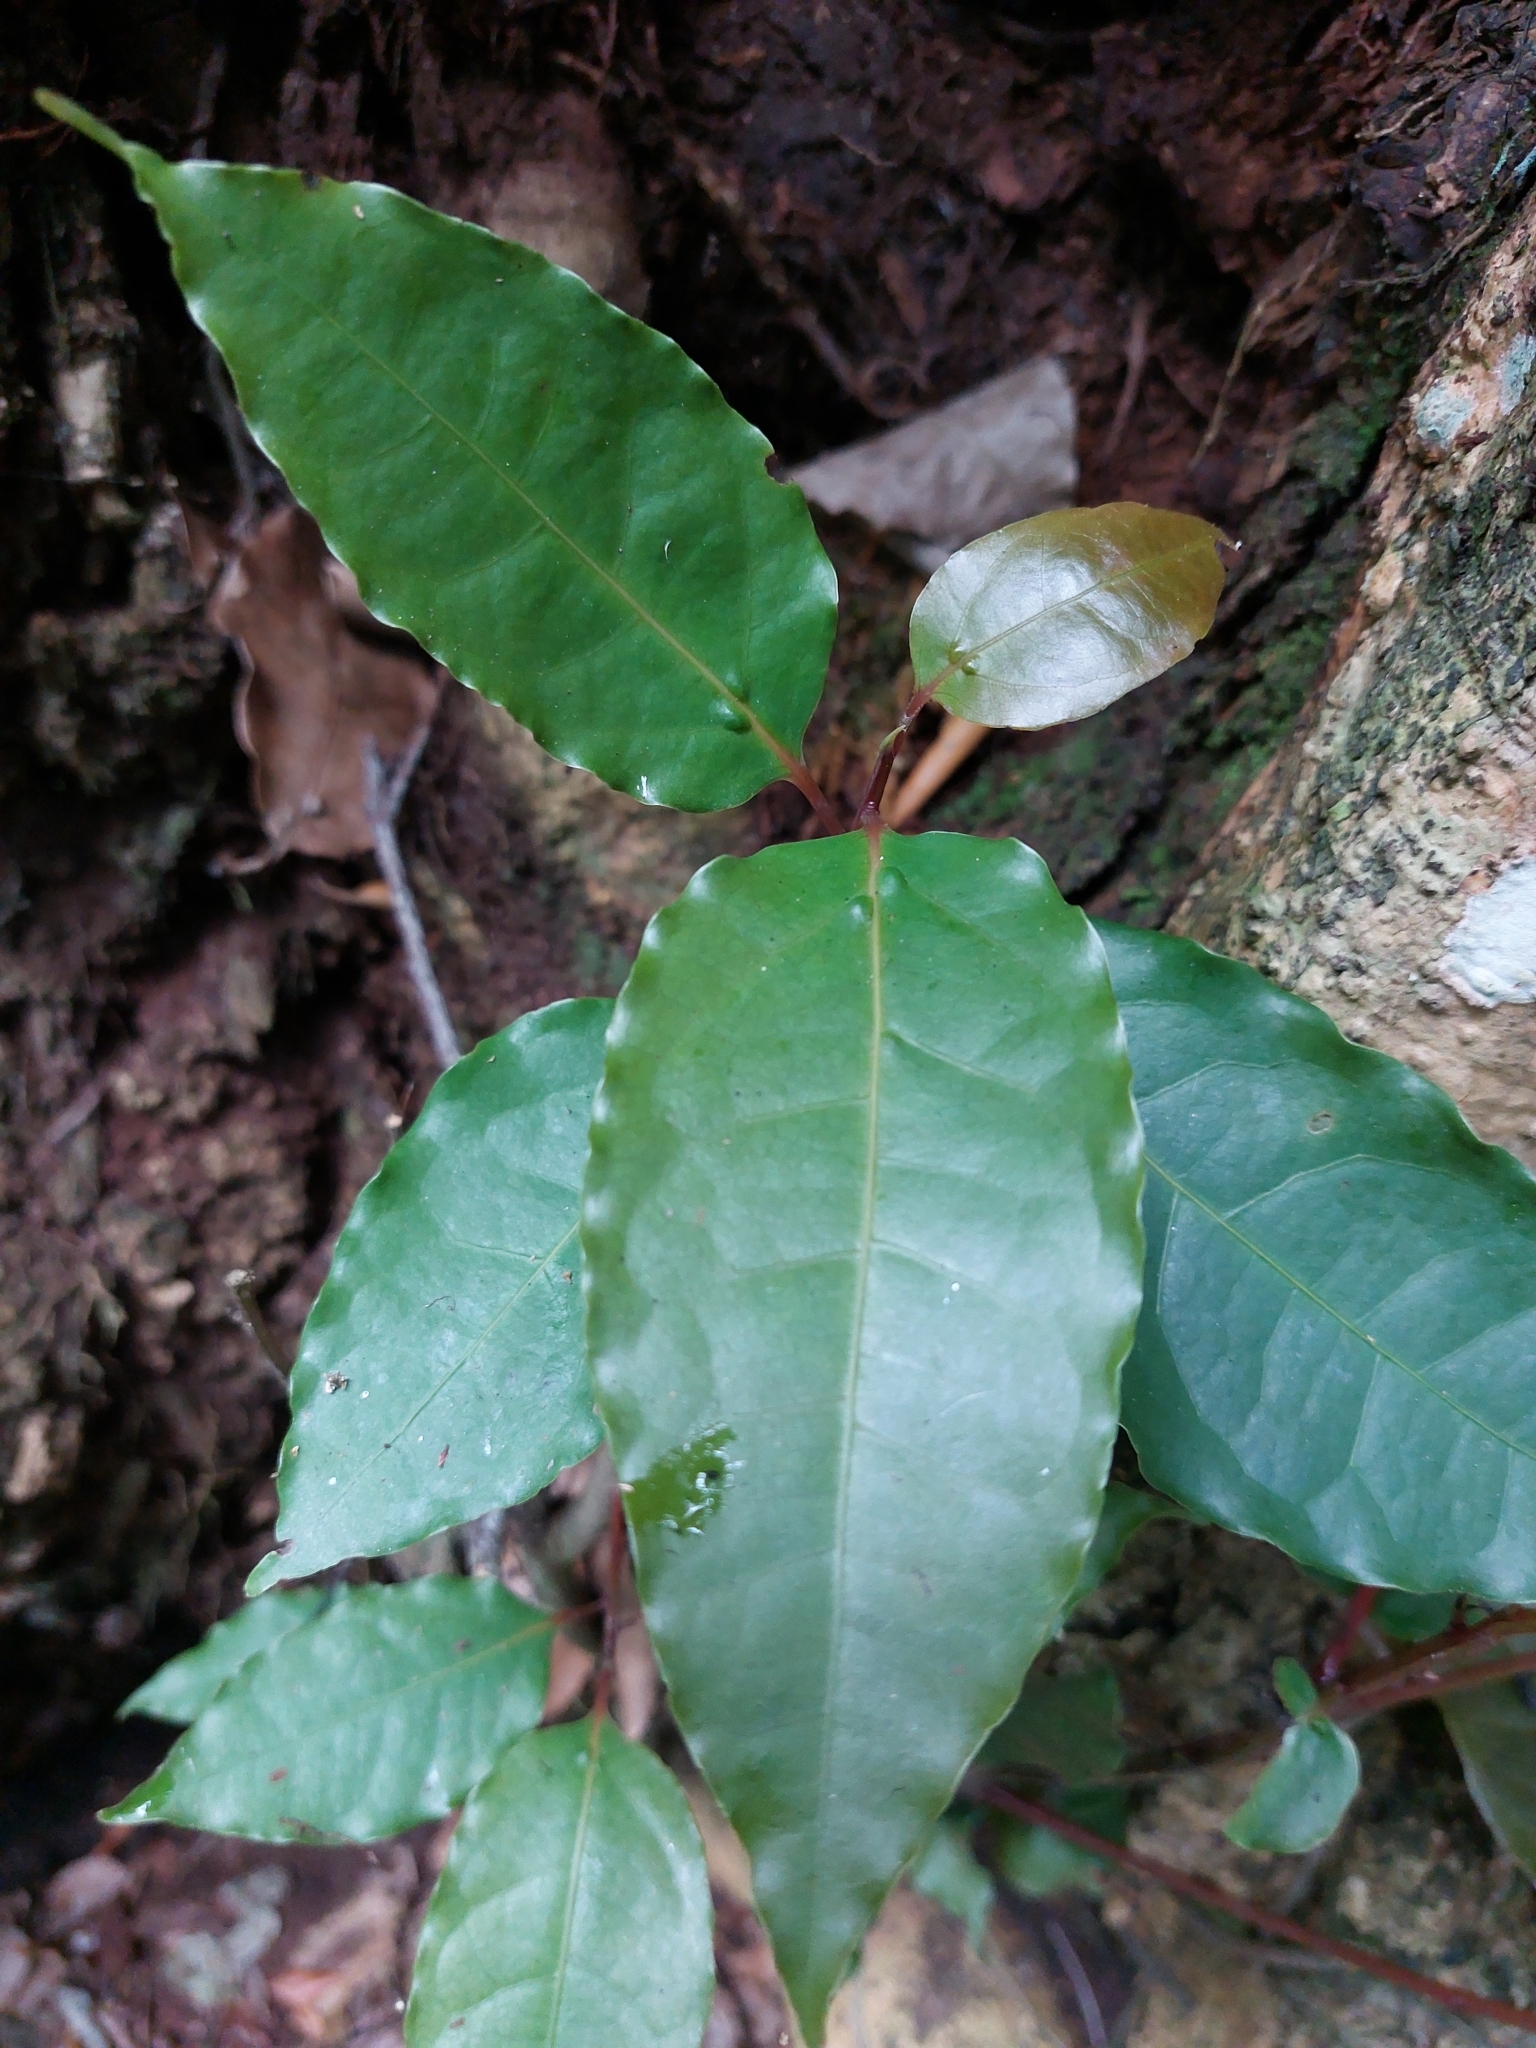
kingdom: Plantae
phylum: Tracheophyta
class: Magnoliopsida
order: Laurales
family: Lauraceae
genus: Ocotea
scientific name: Ocotea bullata
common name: Black stinkwood
